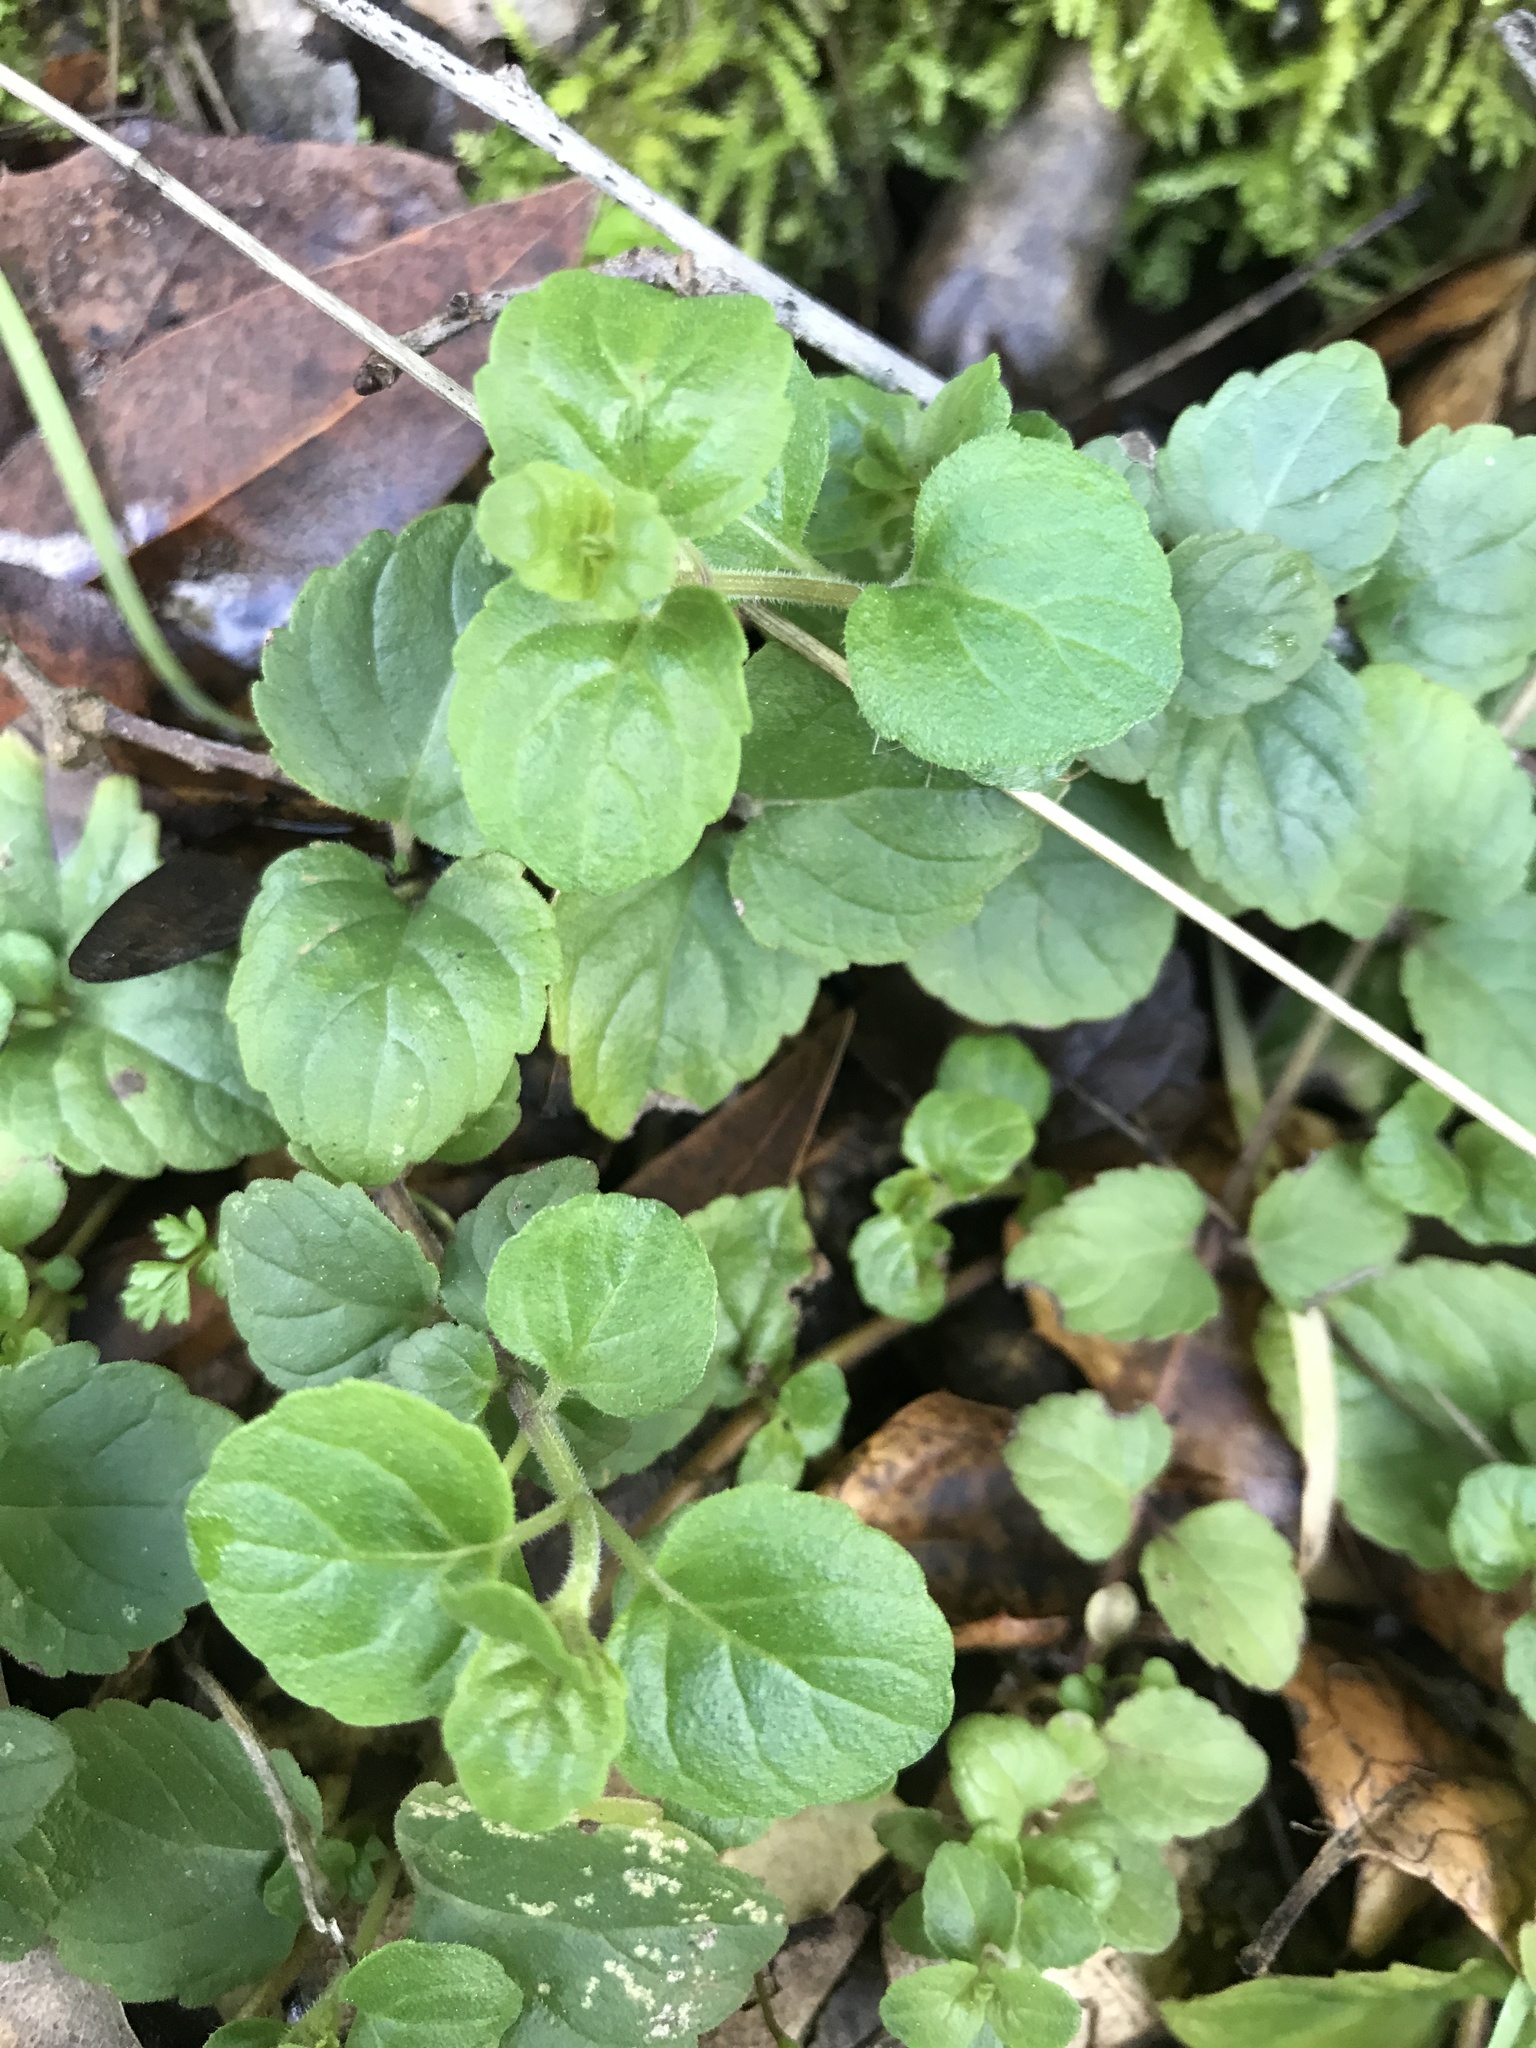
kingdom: Plantae
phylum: Tracheophyta
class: Magnoliopsida
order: Lamiales
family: Lamiaceae
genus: Micromeria
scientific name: Micromeria douglasii
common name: Yerba buena
